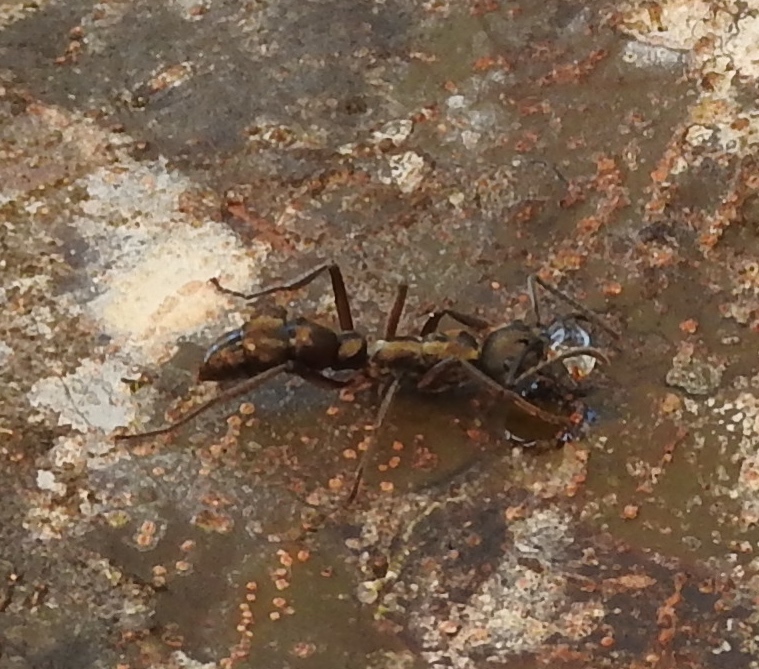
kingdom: Animalia
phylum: Arthropoda
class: Insecta
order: Hymenoptera
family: Formicidae
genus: Pachycondyla
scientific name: Pachycondyla villosa
